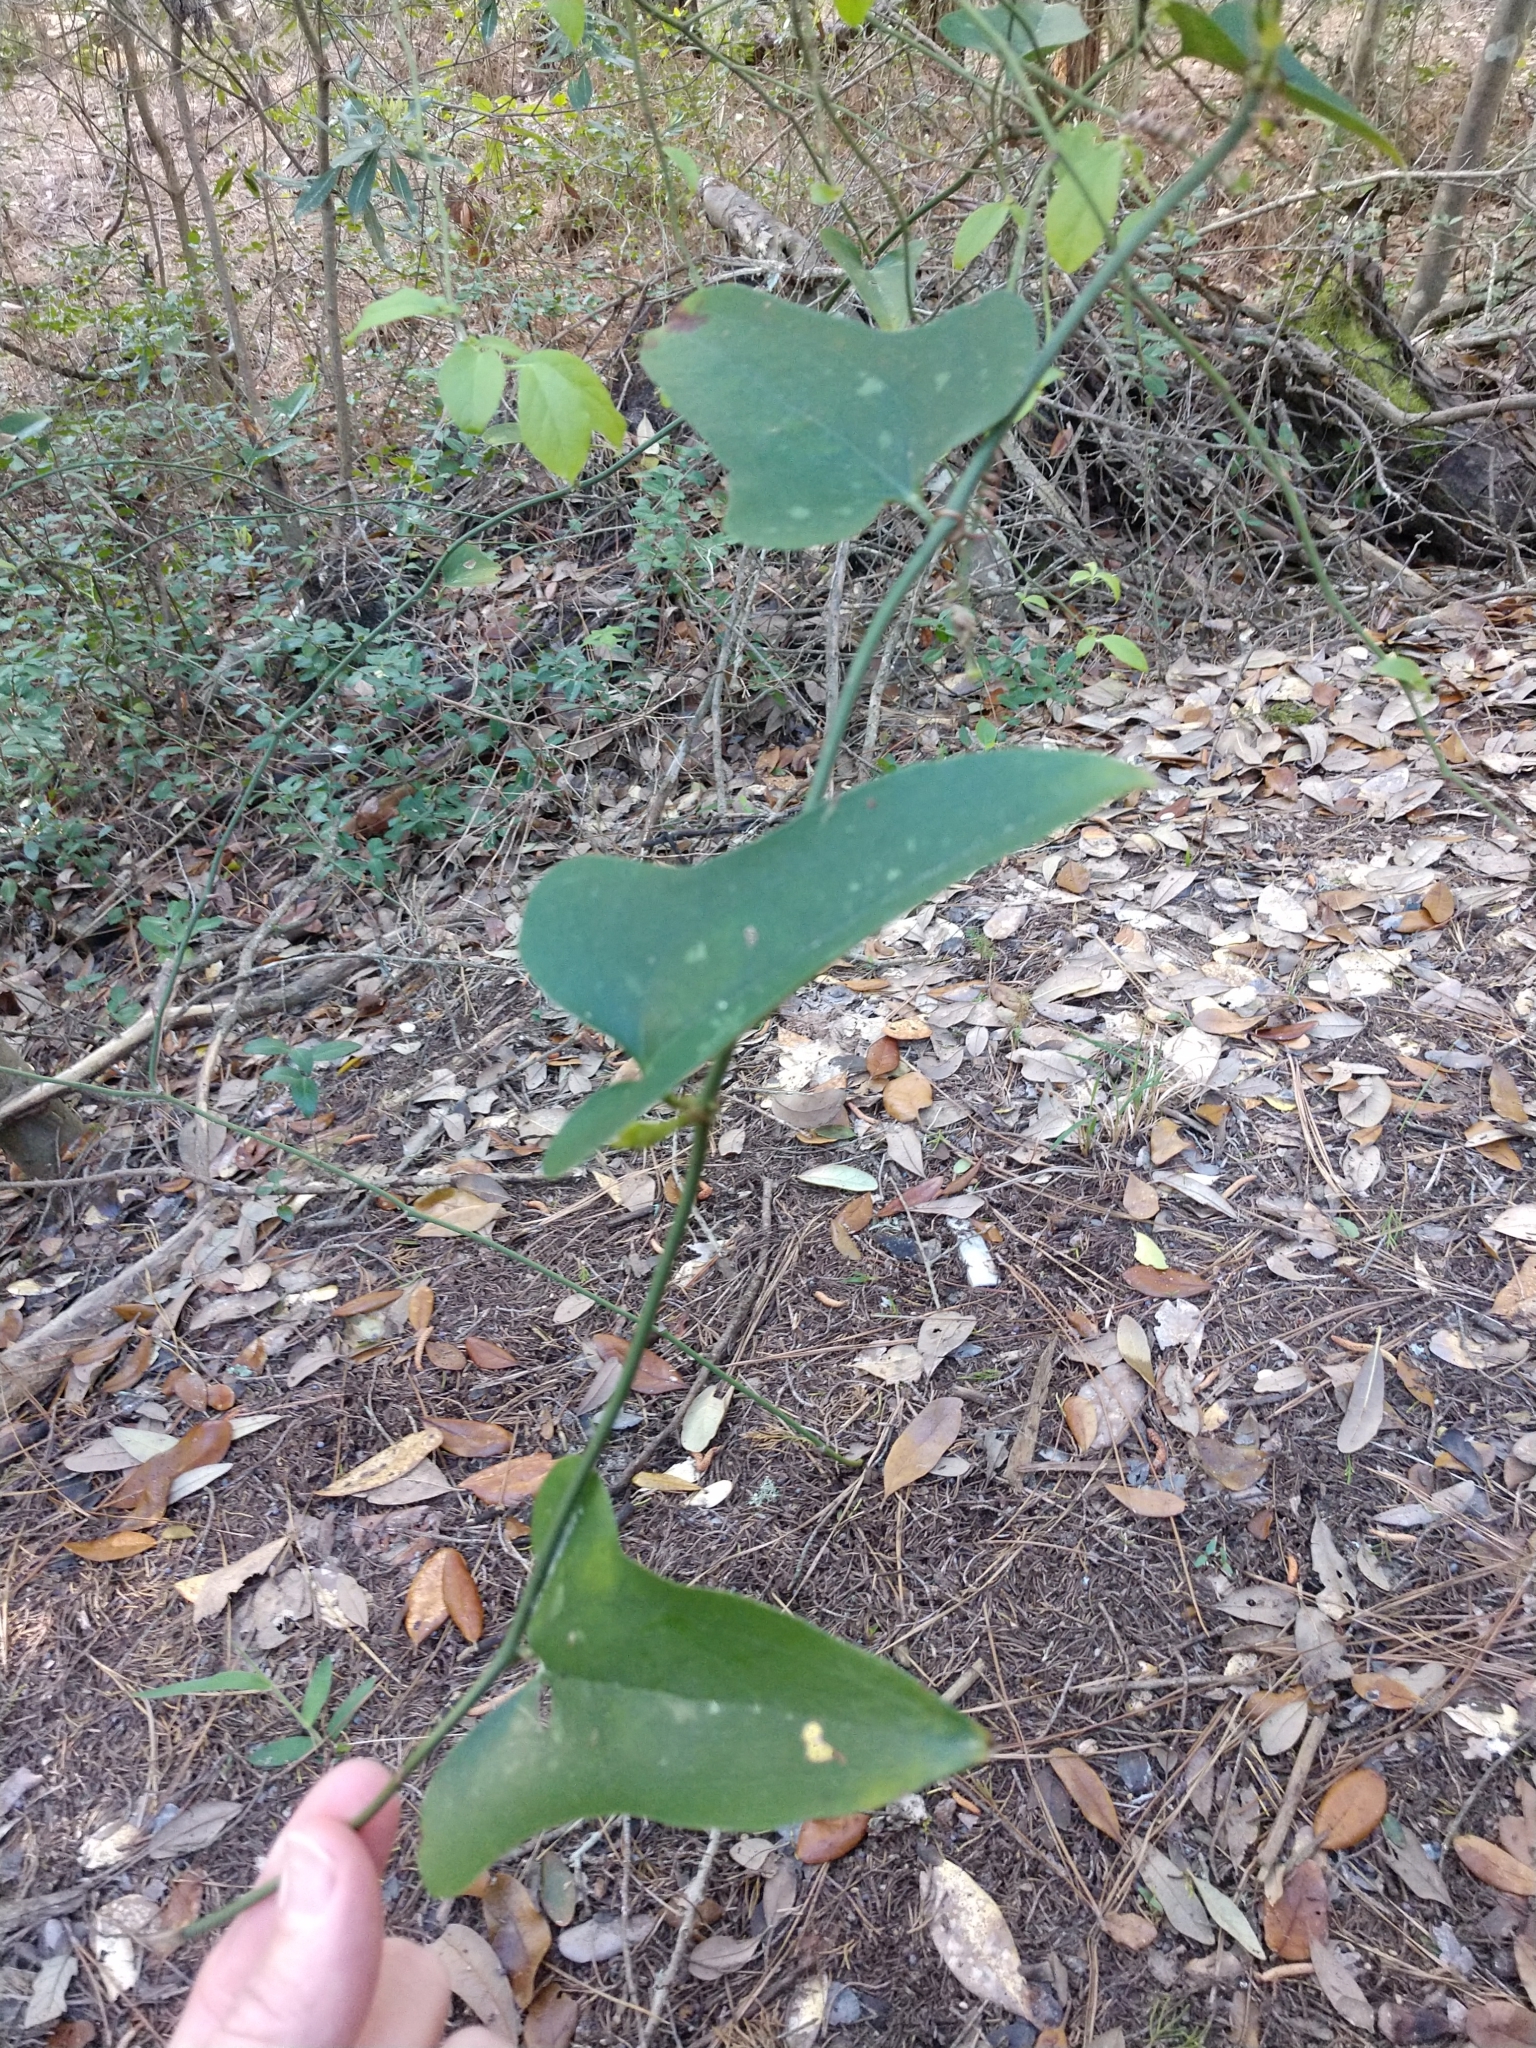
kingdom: Plantae
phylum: Tracheophyta
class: Liliopsida
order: Liliales
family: Smilacaceae
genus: Smilax
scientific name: Smilax bona-nox
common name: Catbrier
